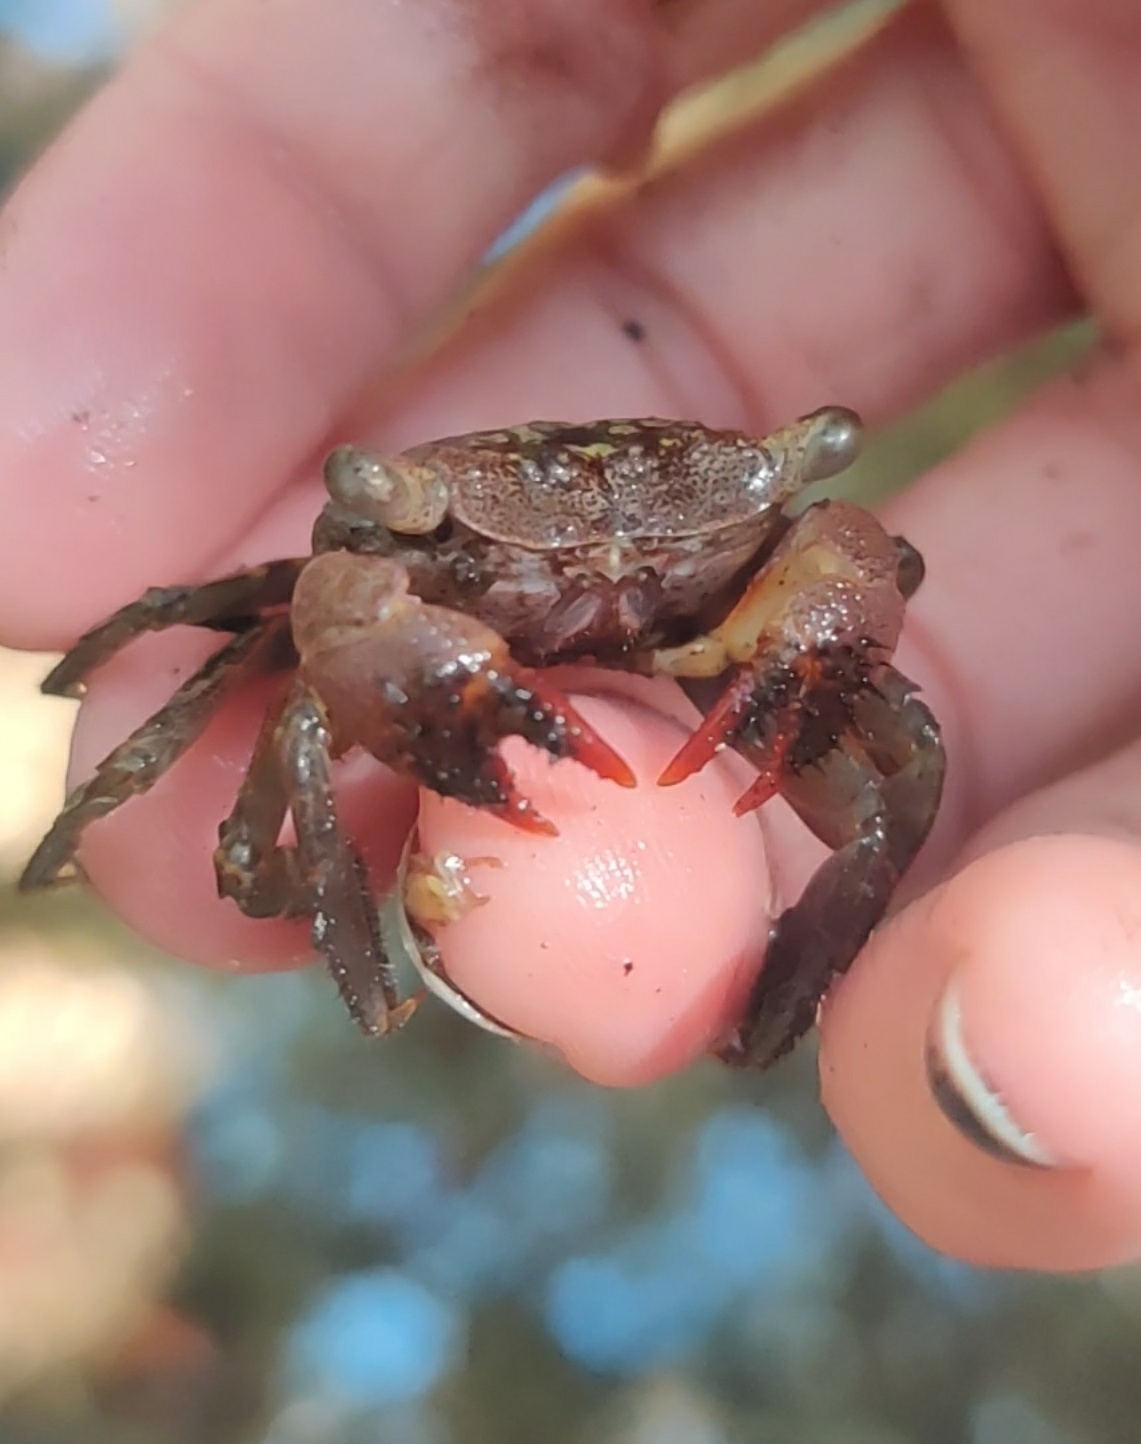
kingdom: Animalia
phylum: Arthropoda
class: Malacostraca
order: Decapoda
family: Sesarmidae
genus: Aratus
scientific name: Aratus pisonii
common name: Mangrove crab
